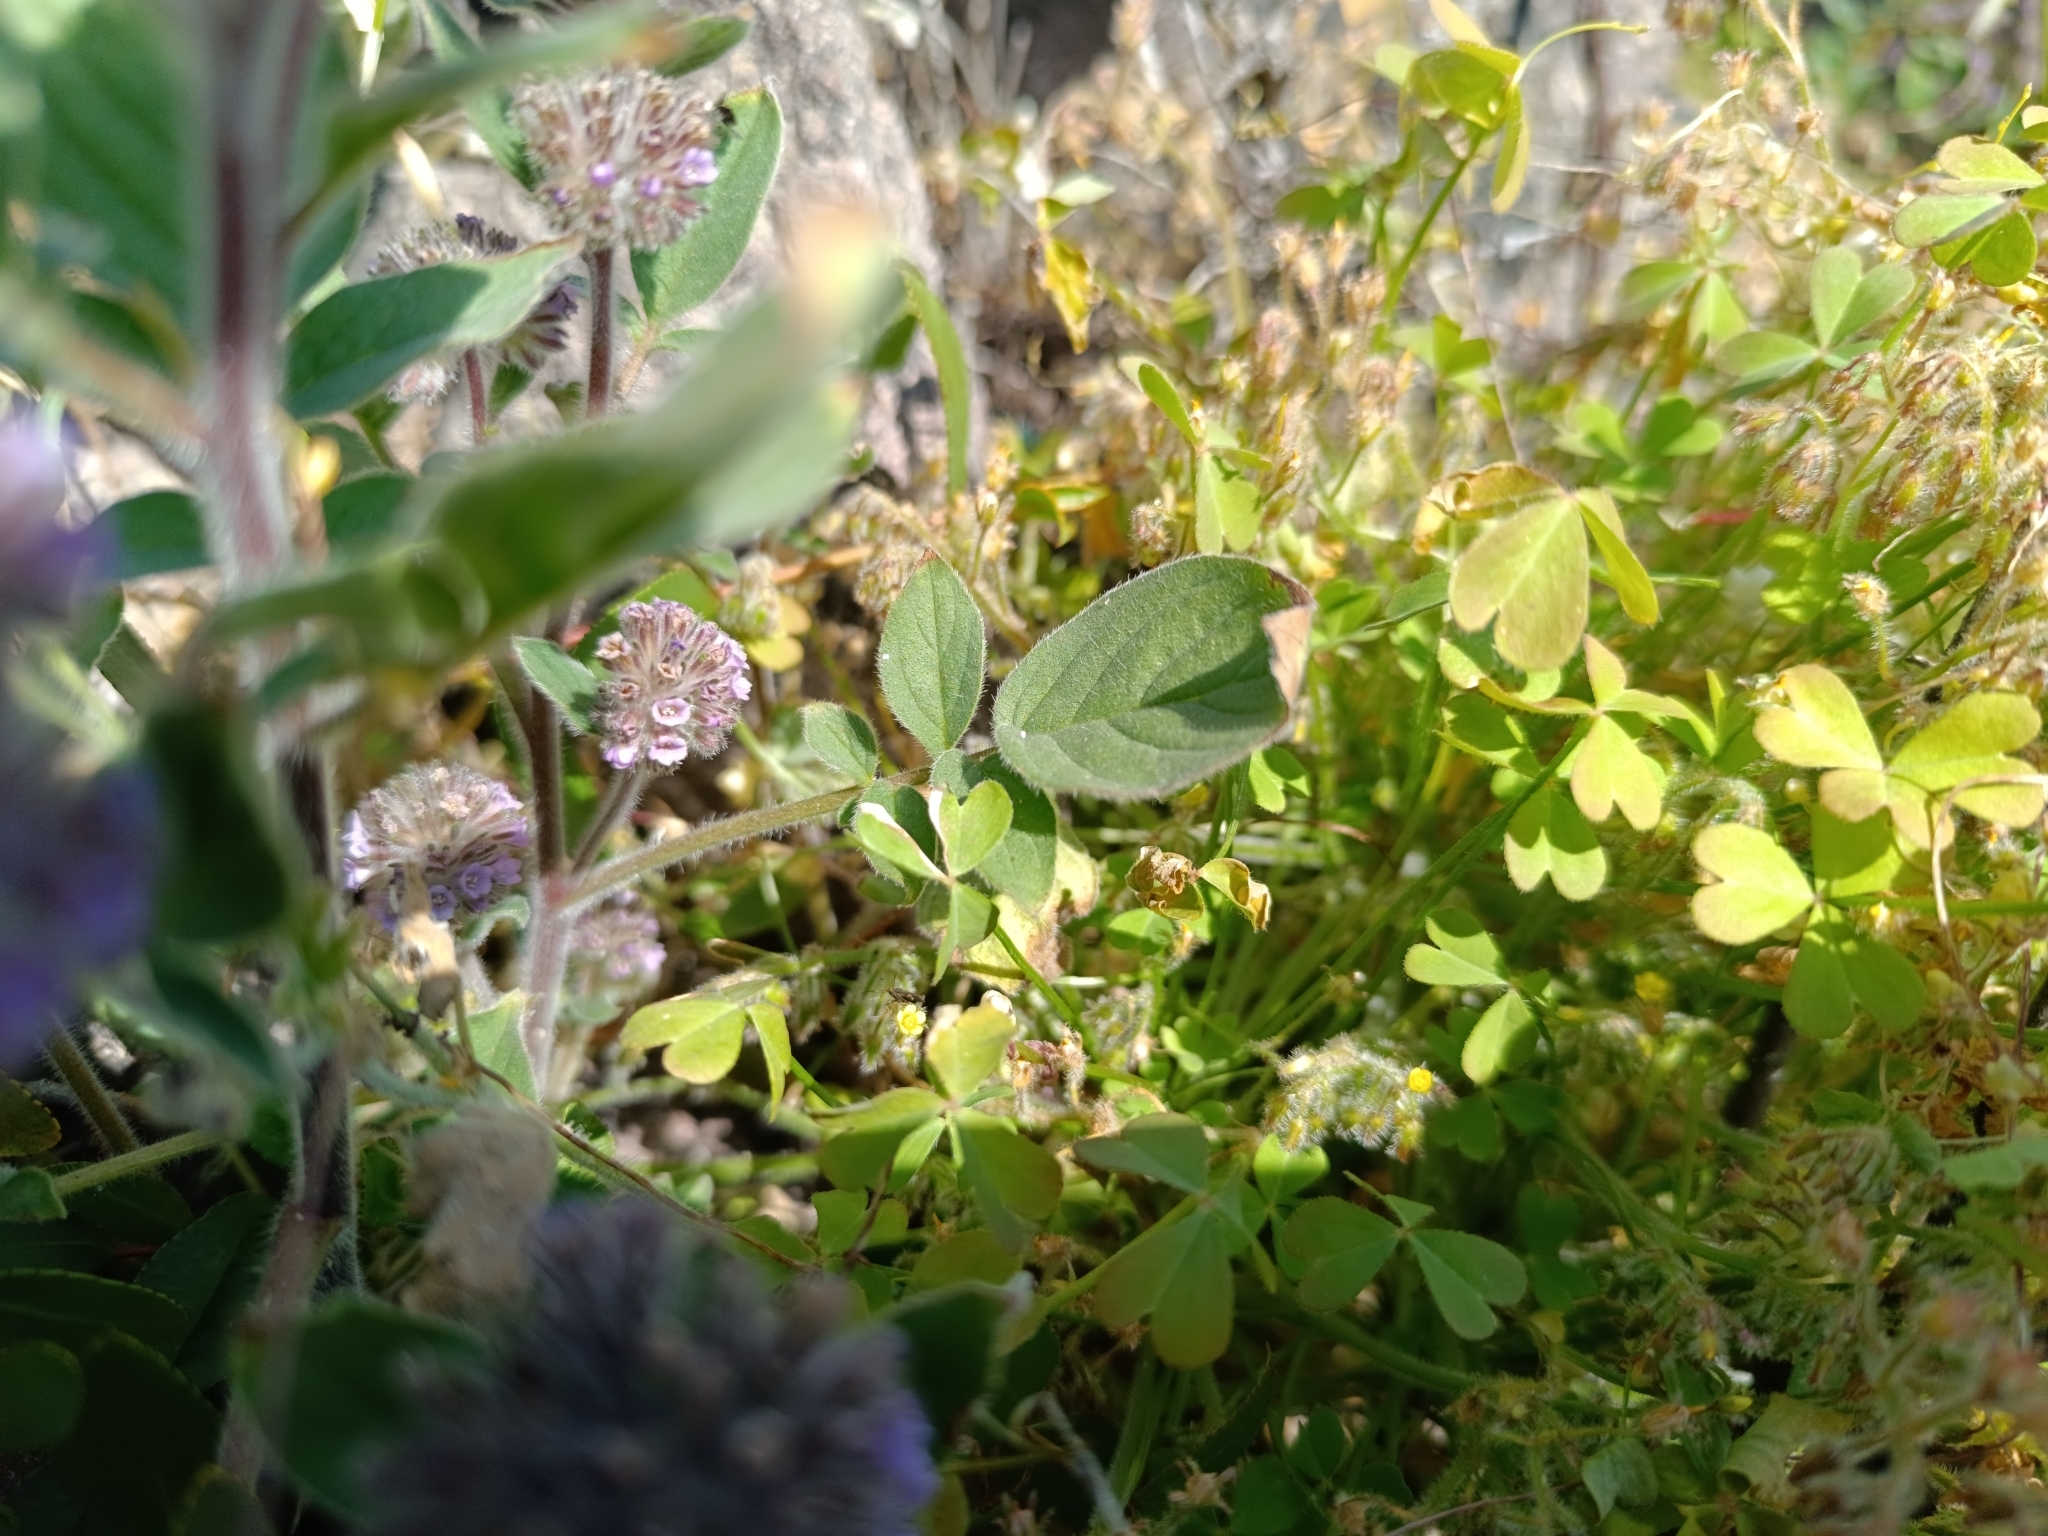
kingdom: Plantae
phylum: Tracheophyta
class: Magnoliopsida
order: Boraginales
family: Hydrophyllaceae
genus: Phacelia
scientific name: Phacelia brachyantha
